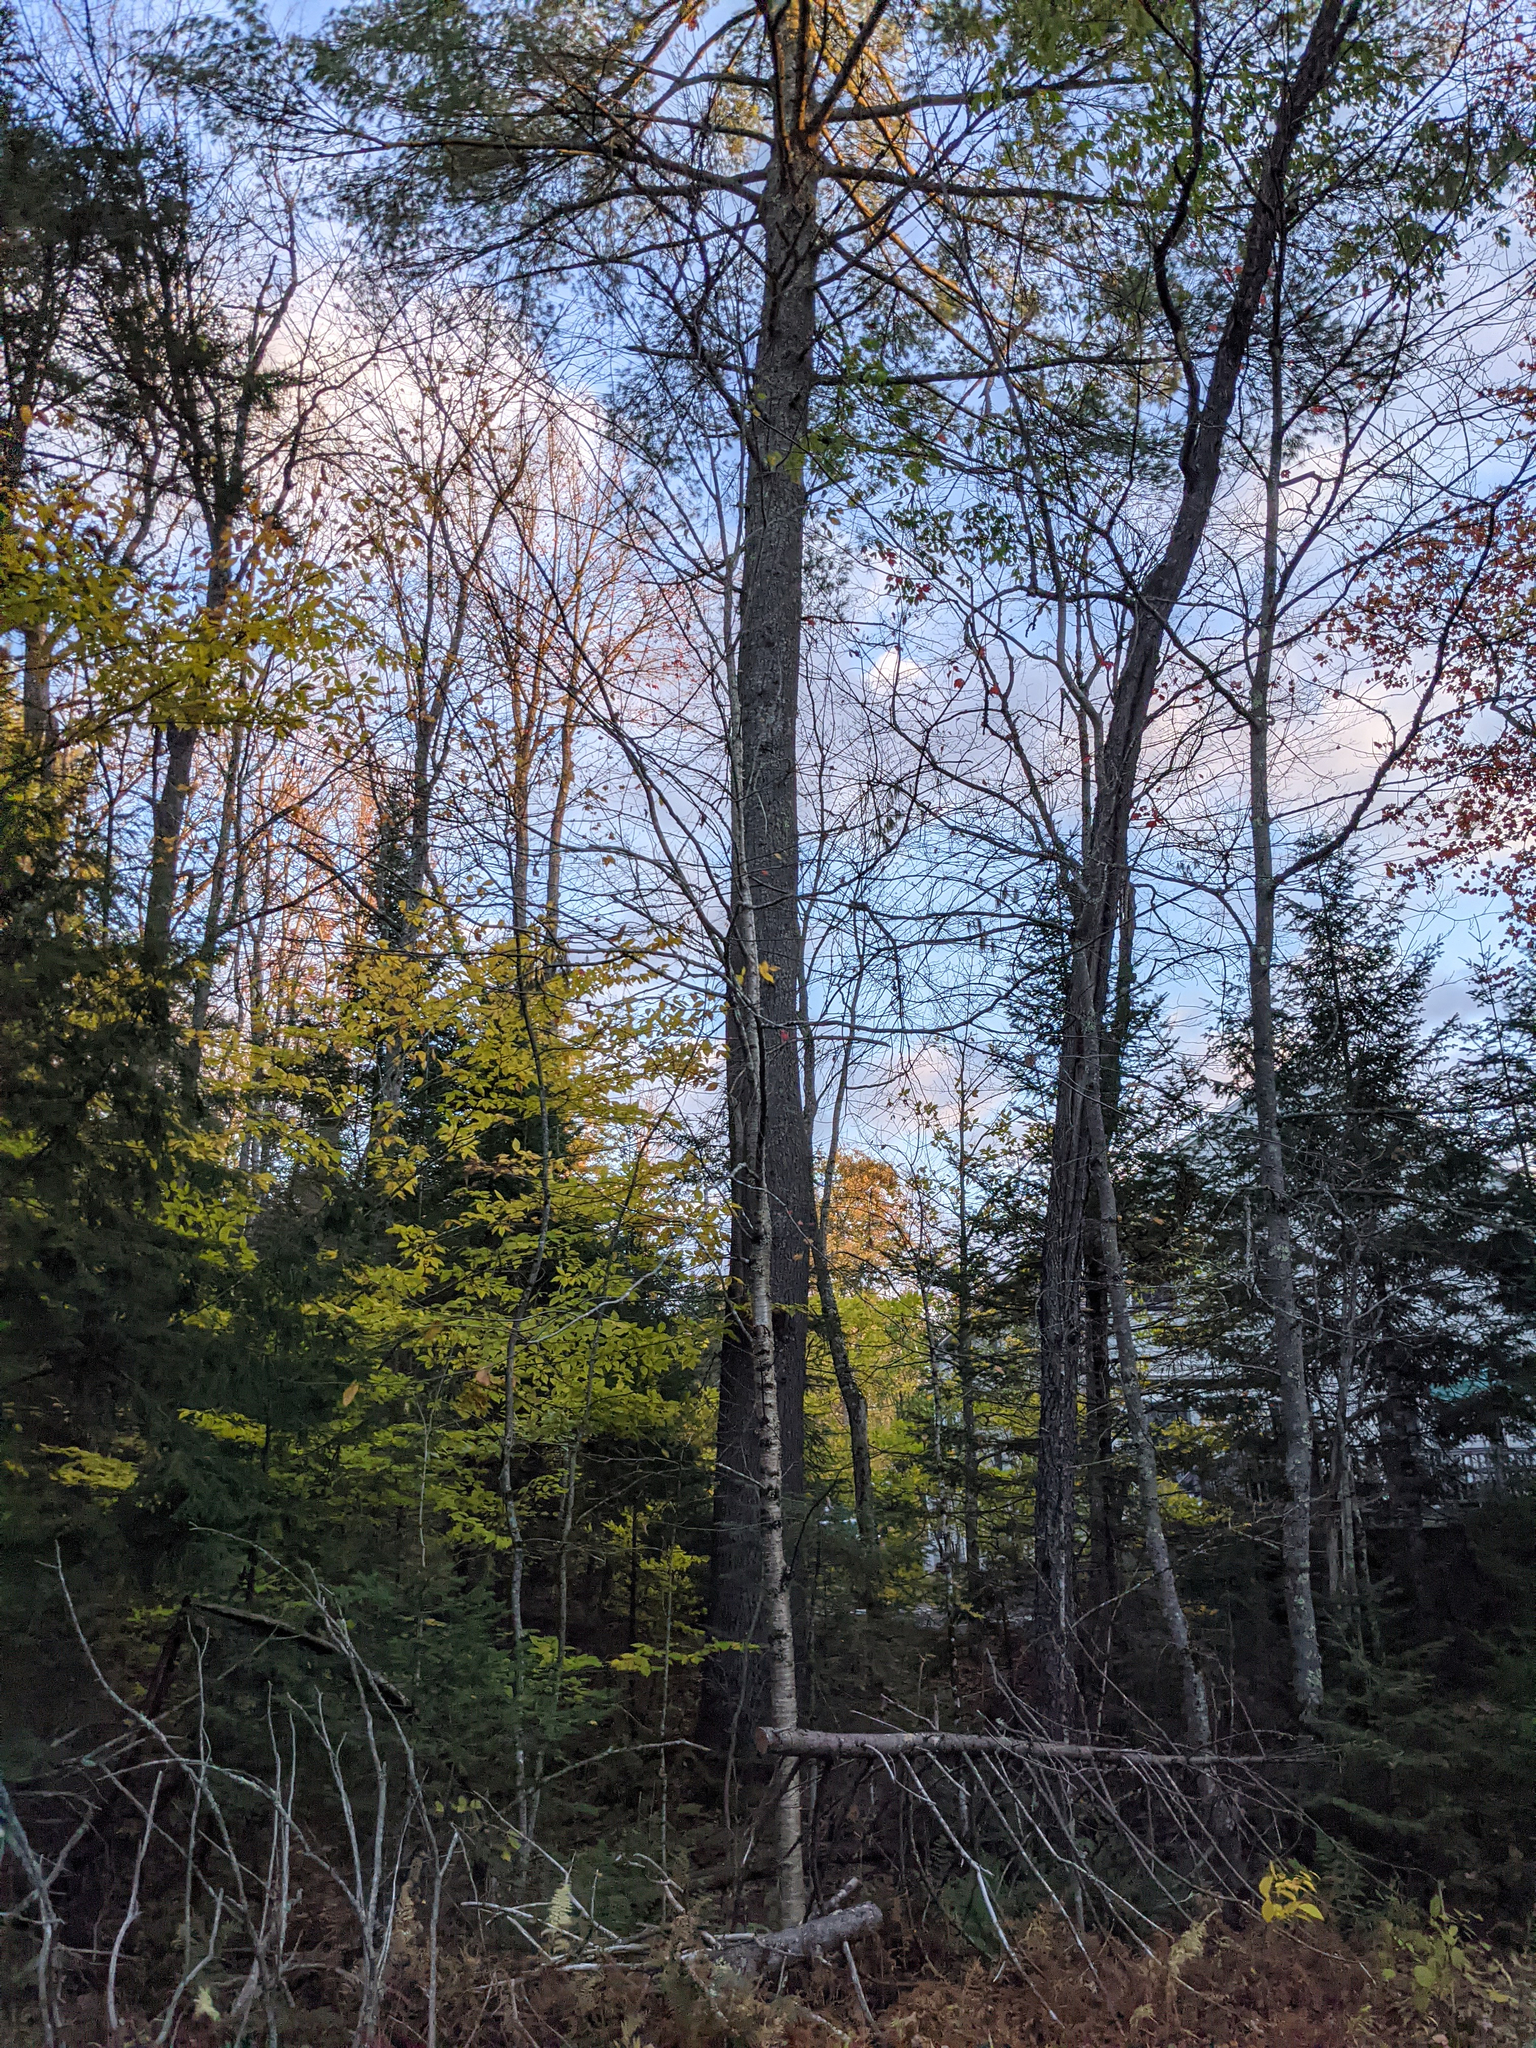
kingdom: Plantae
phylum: Tracheophyta
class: Pinopsida
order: Pinales
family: Pinaceae
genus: Pinus
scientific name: Pinus strobus
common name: Weymouth pine
